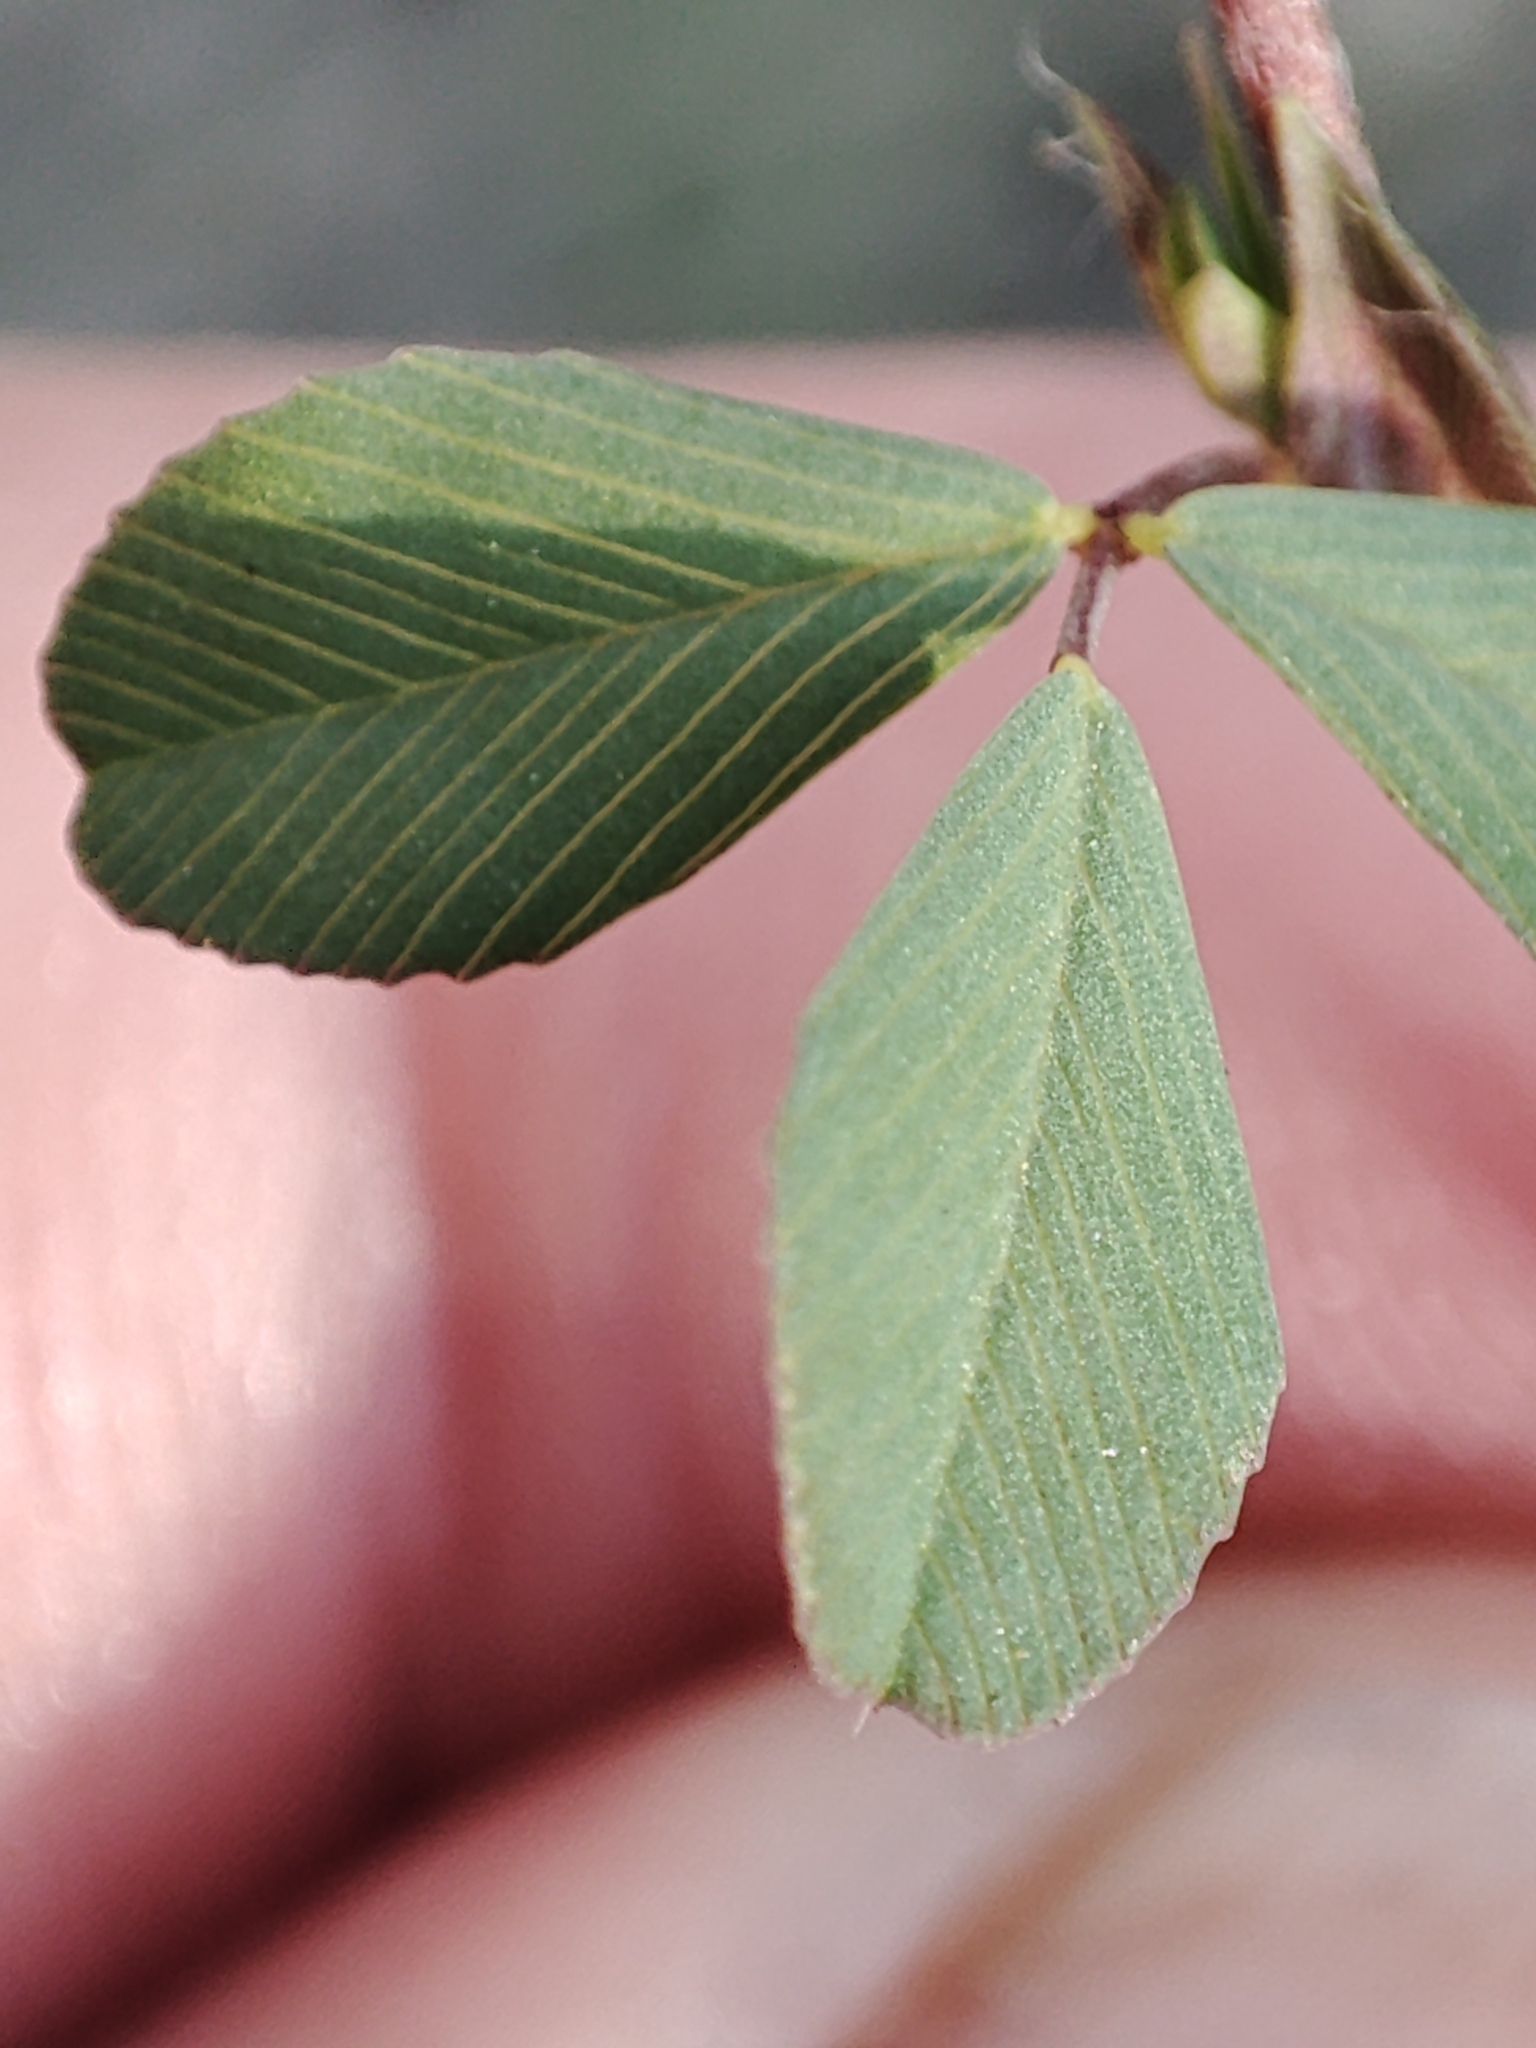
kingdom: Plantae
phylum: Tracheophyta
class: Magnoliopsida
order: Fabales
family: Fabaceae
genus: Trifolium
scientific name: Trifolium campestre
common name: Field clover
